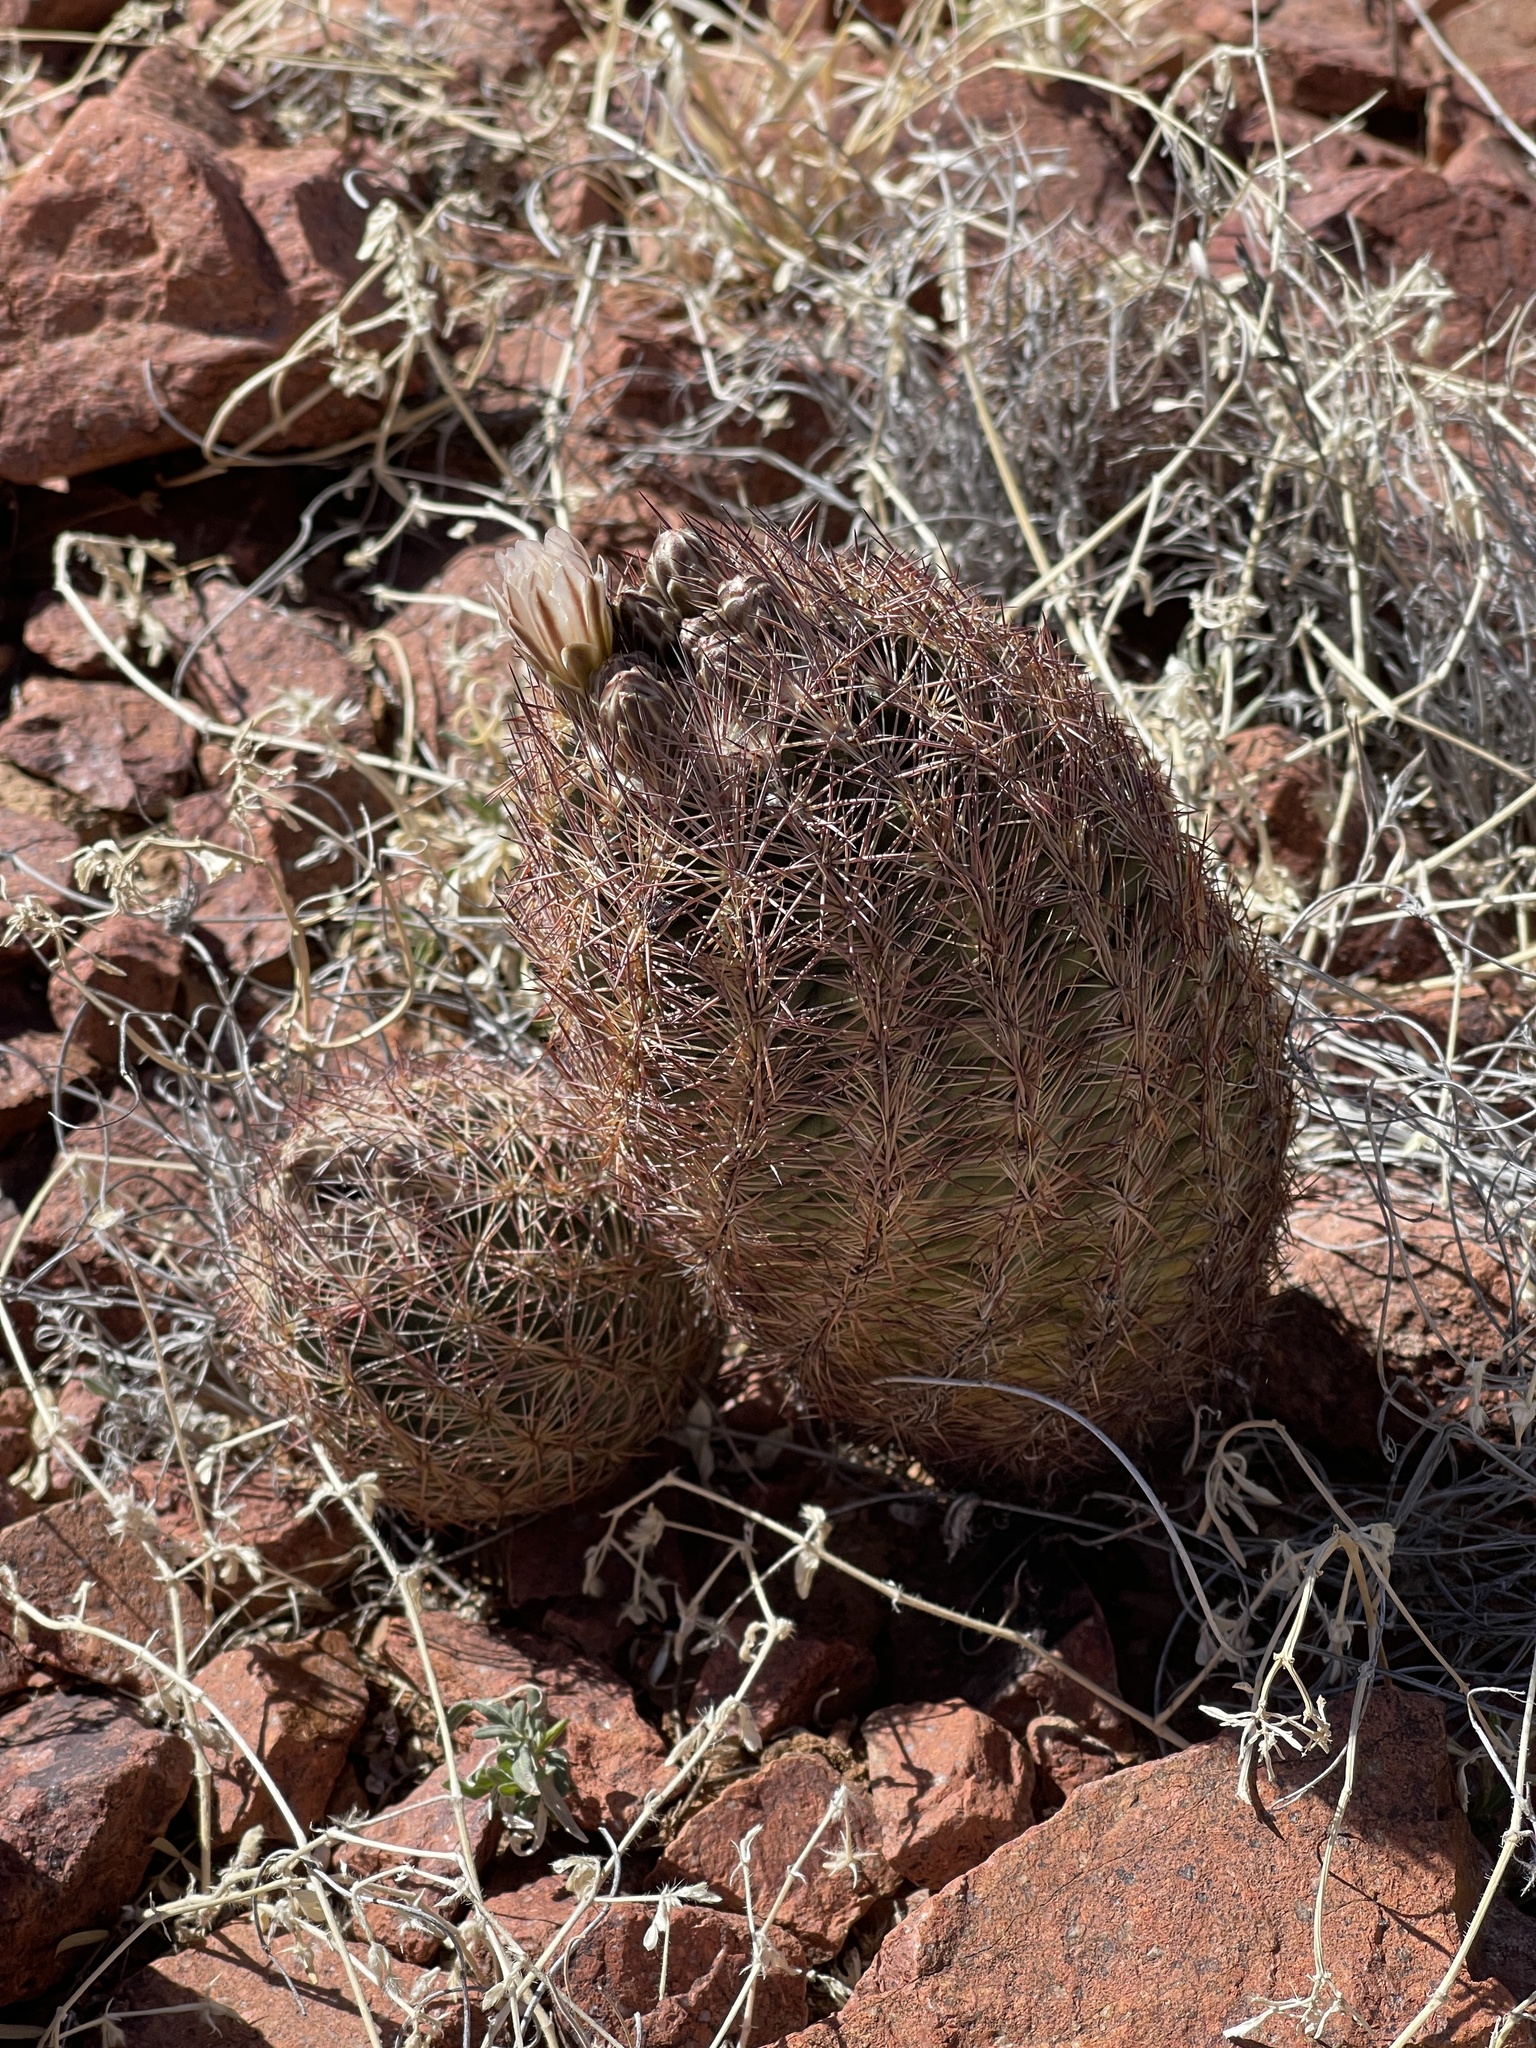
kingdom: Plantae
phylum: Tracheophyta
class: Magnoliopsida
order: Caryophyllales
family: Cactaceae
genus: Sclerocactus
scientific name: Sclerocactus intertextus
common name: White fish-hook cactus
